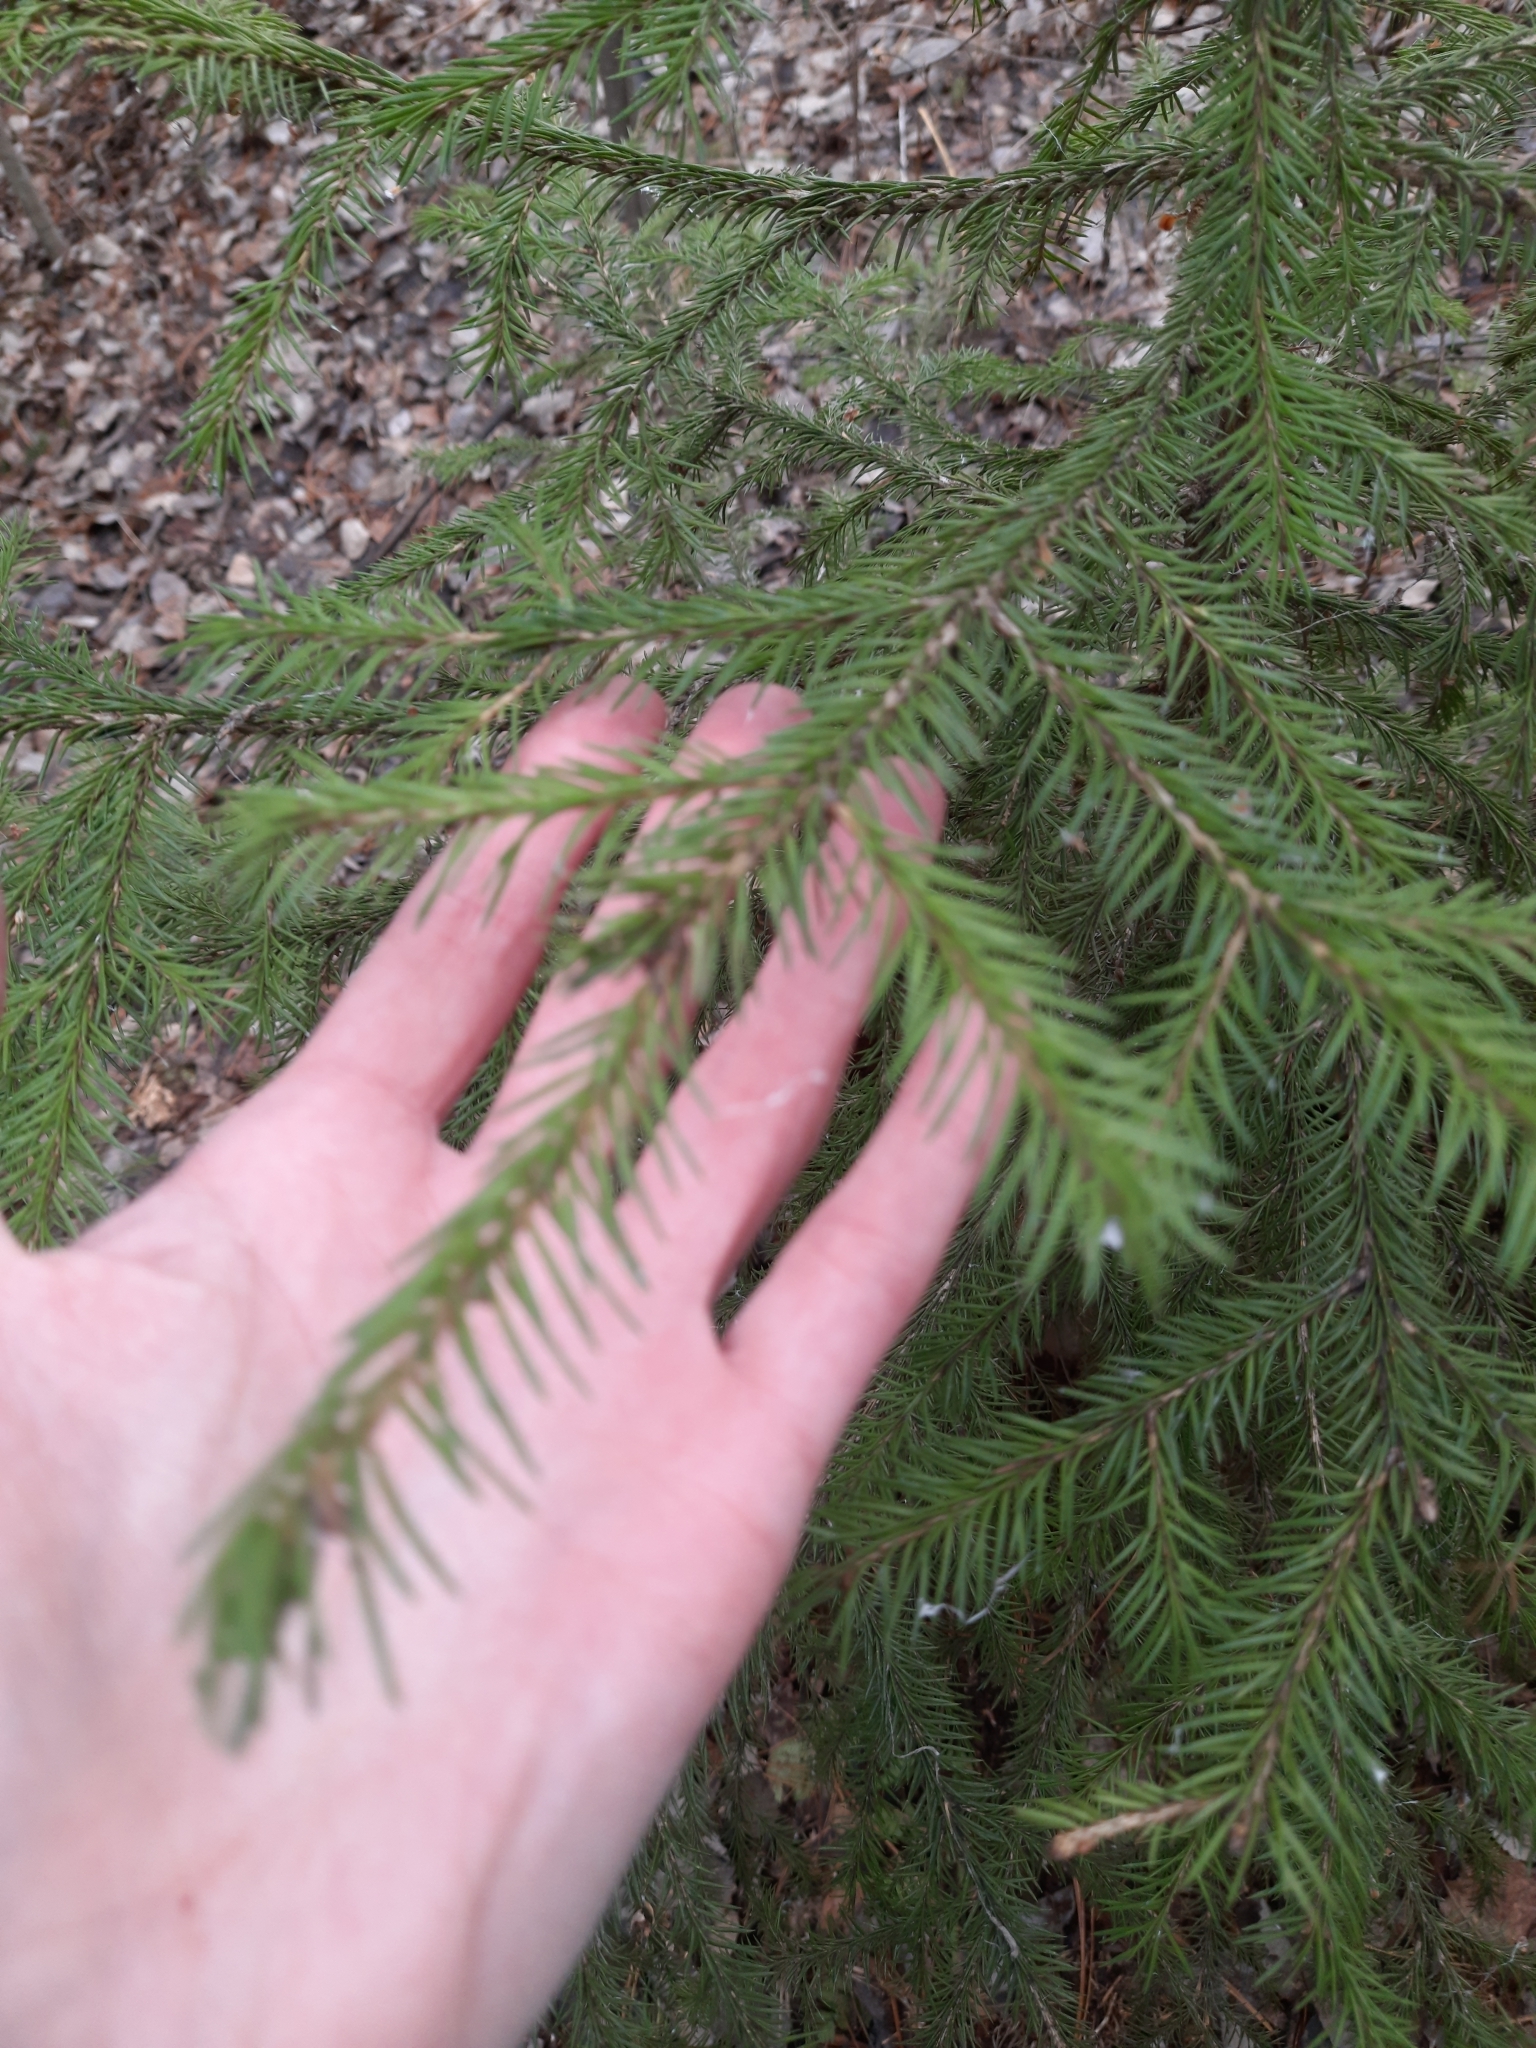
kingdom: Plantae
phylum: Tracheophyta
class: Pinopsida
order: Pinales
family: Pinaceae
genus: Abies
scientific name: Abies sibirica
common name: Siberian fir
